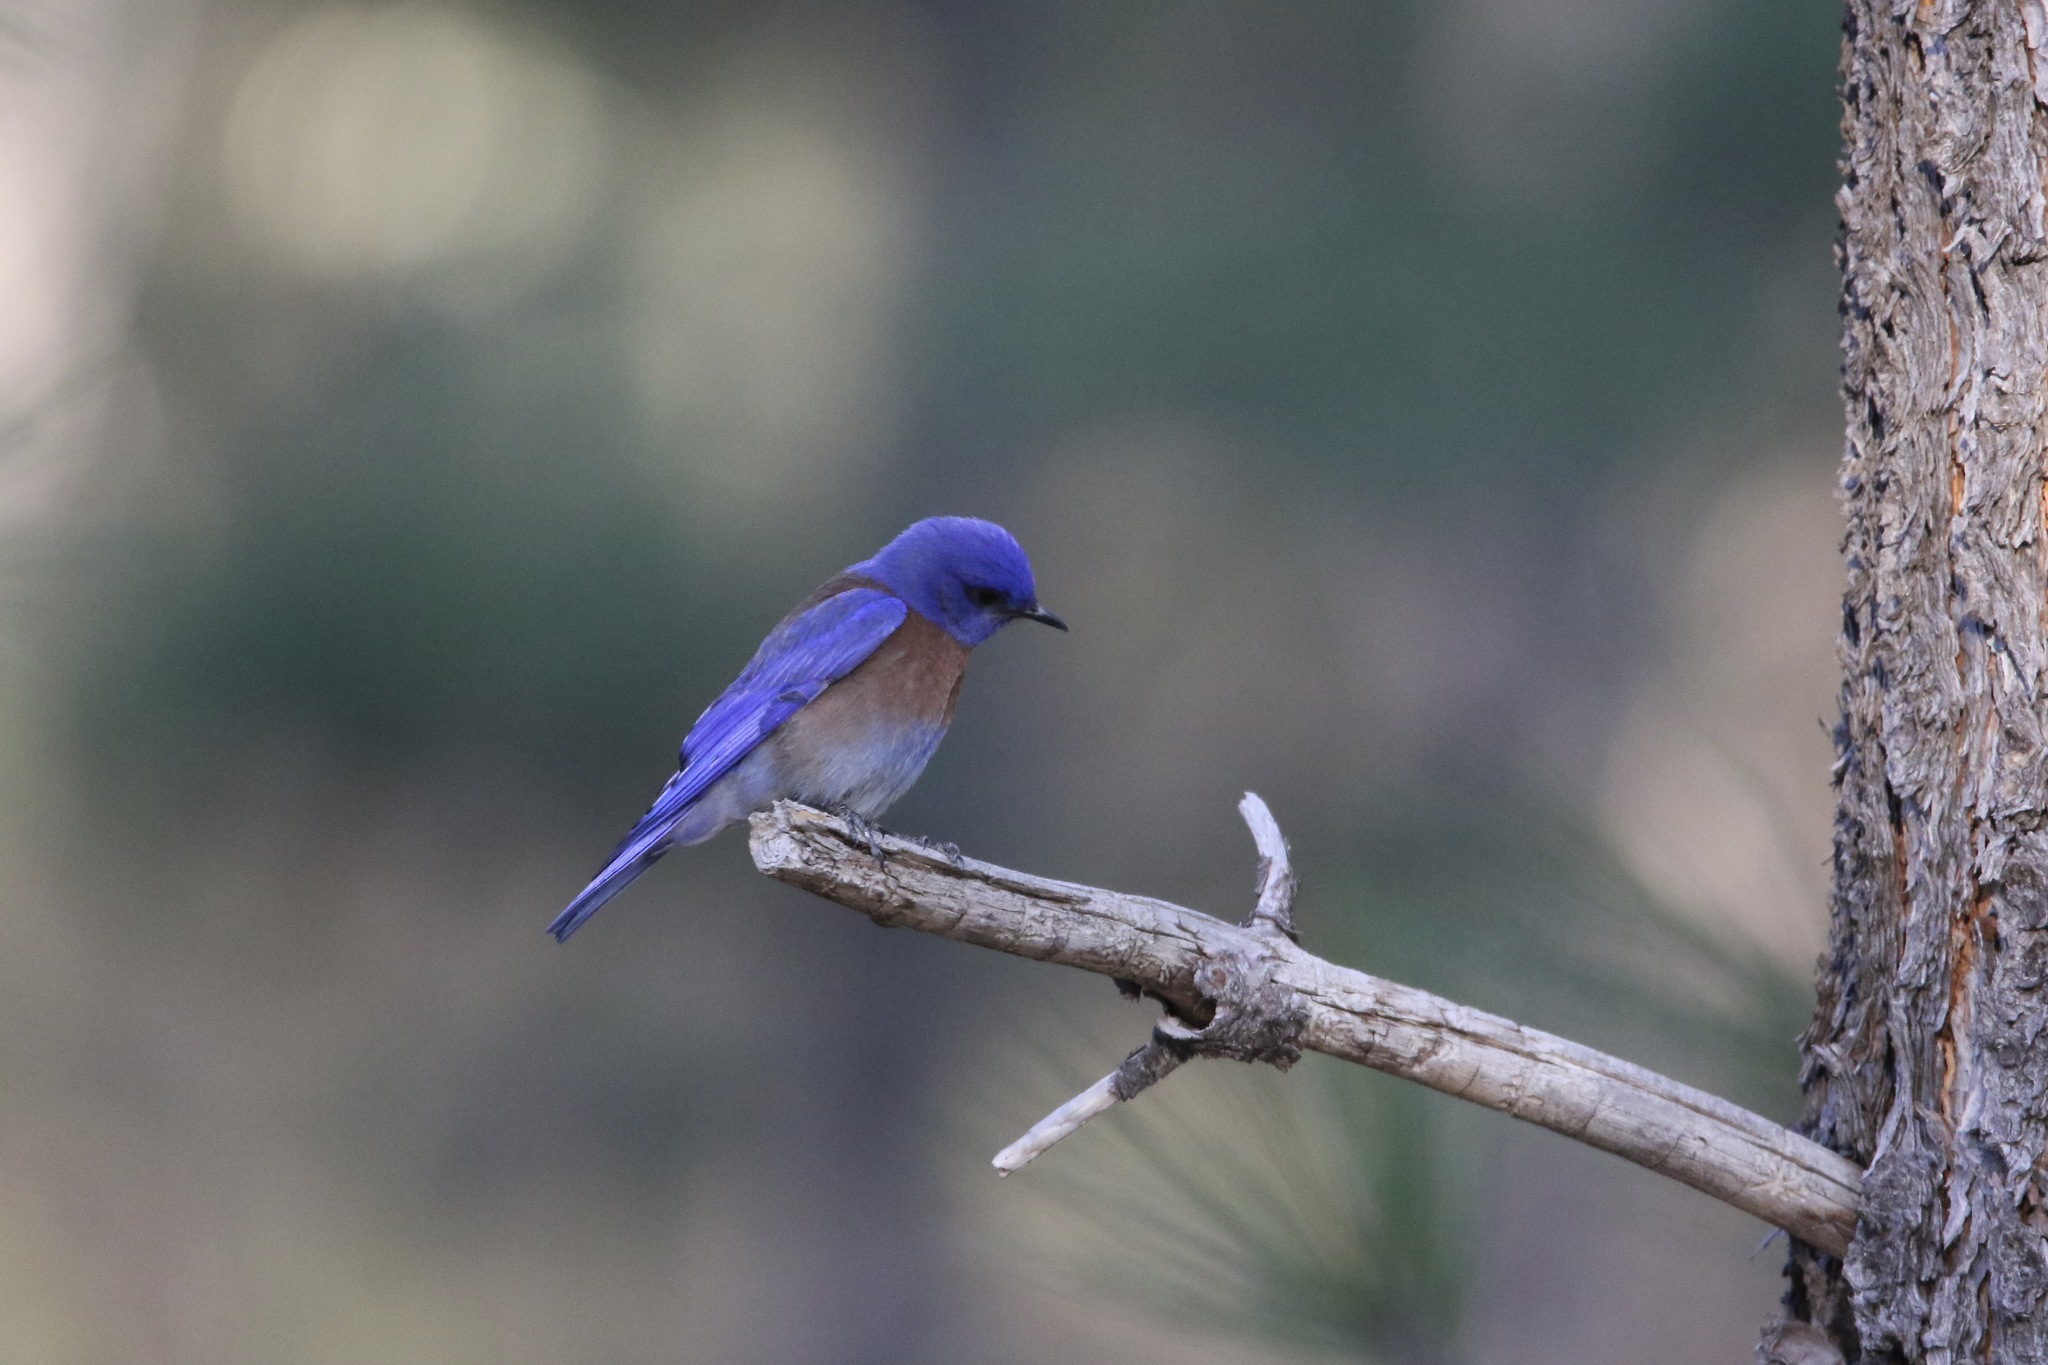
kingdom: Animalia
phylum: Chordata
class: Aves
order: Passeriformes
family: Turdidae
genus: Sialia
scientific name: Sialia mexicana
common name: Western bluebird
